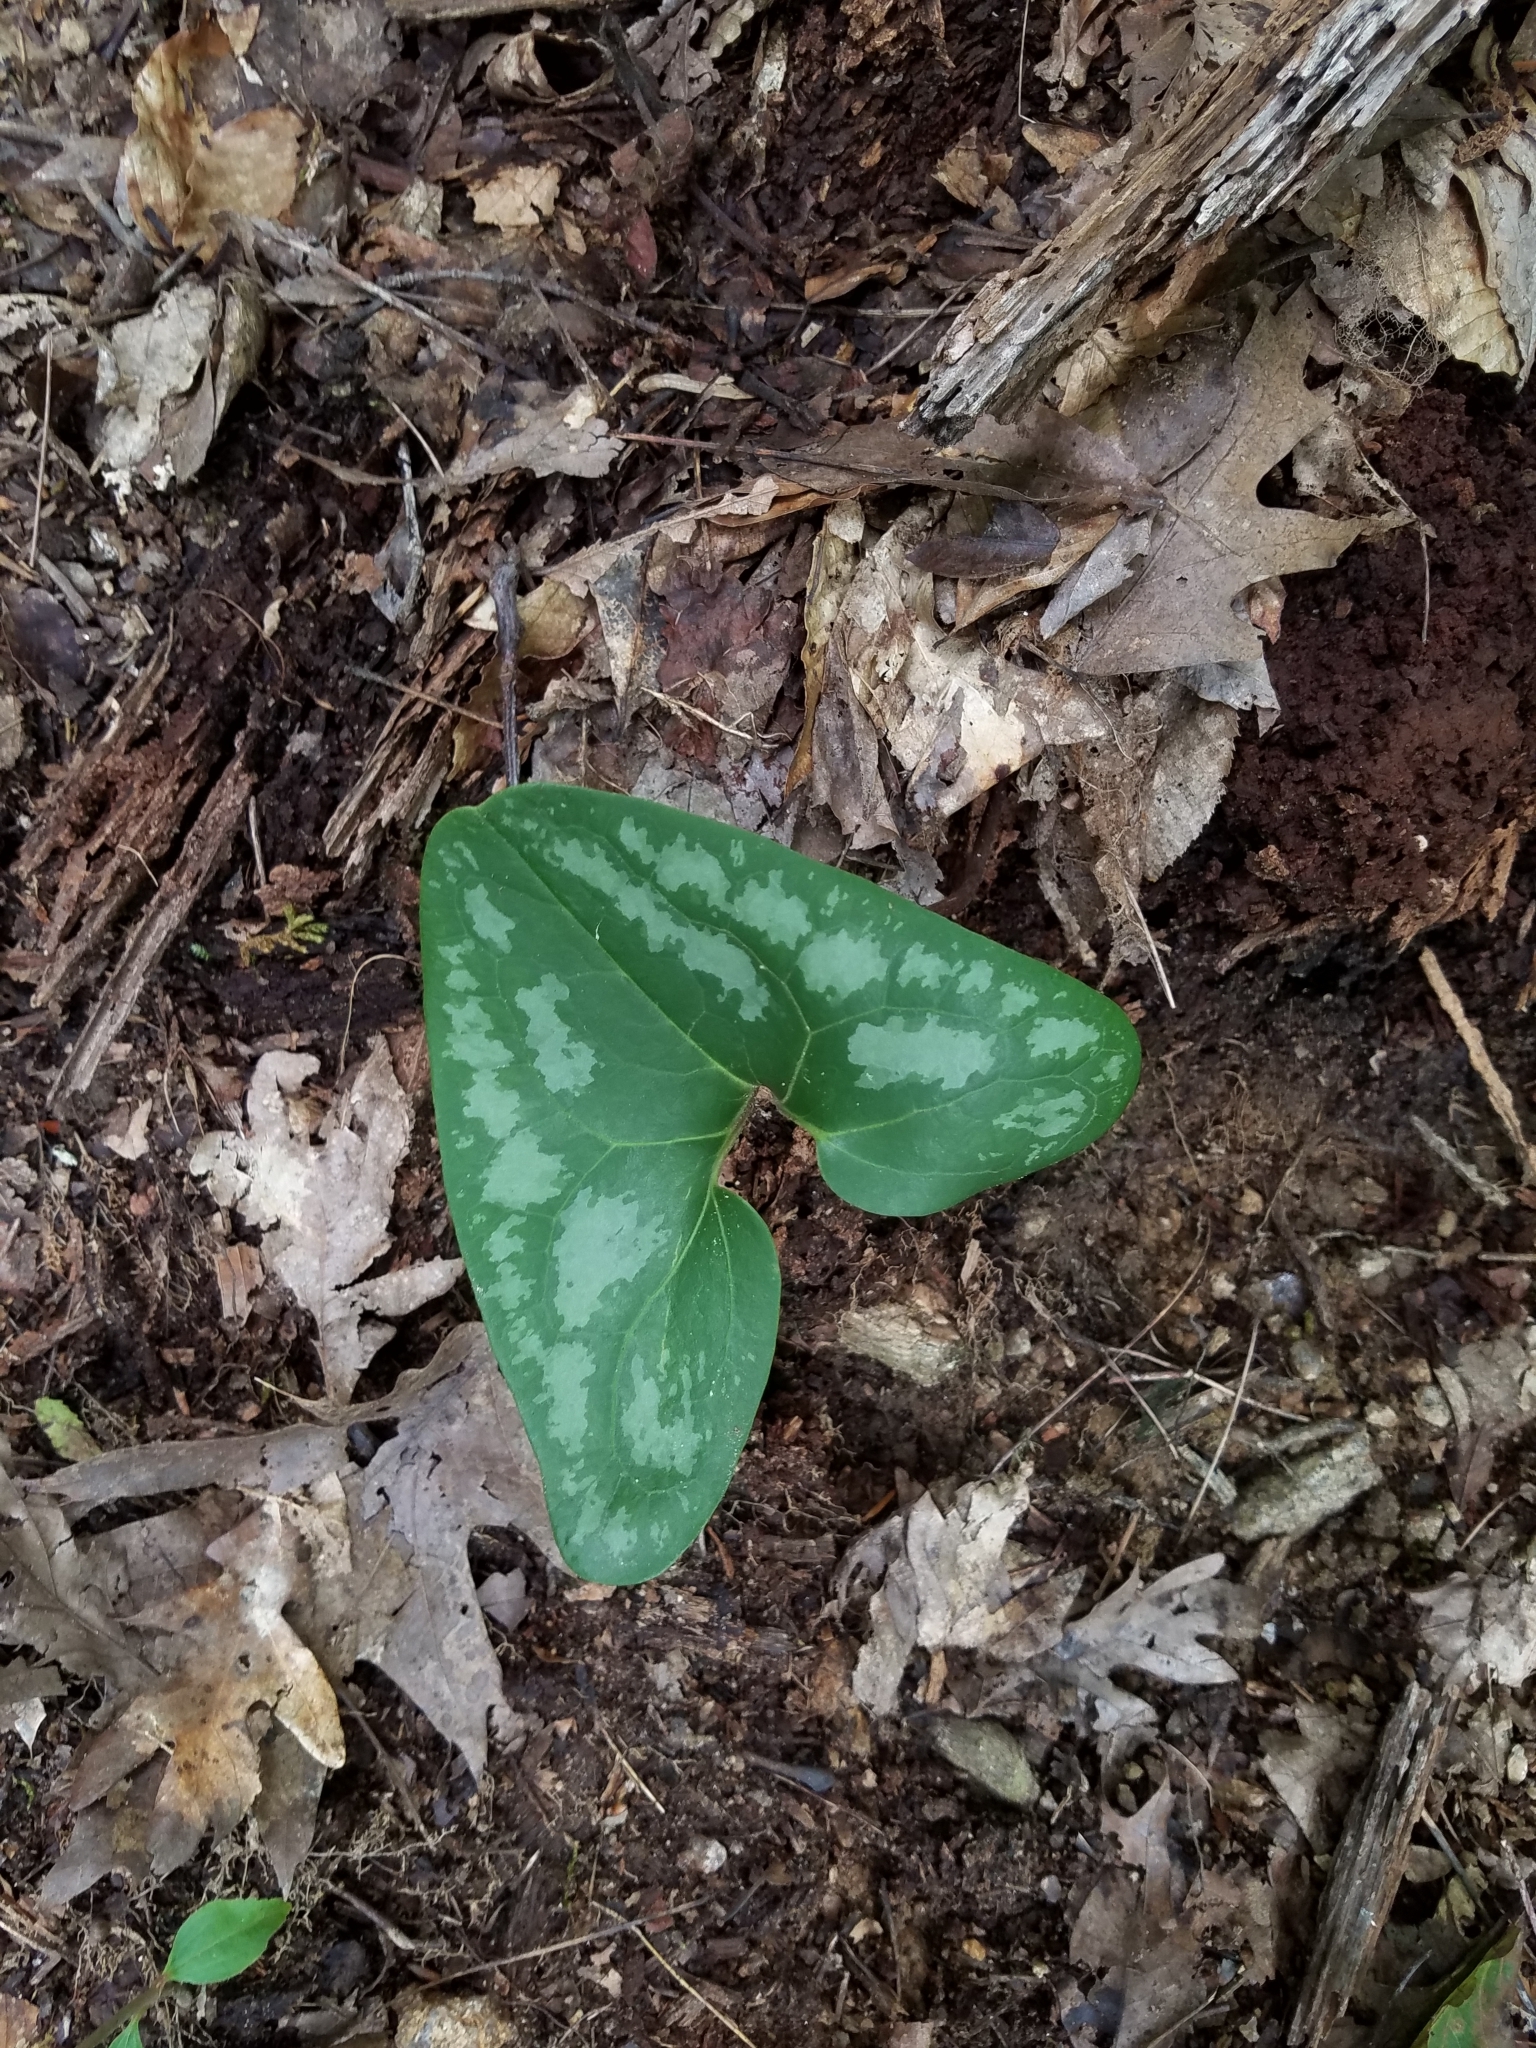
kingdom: Plantae
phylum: Tracheophyta
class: Magnoliopsida
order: Piperales
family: Aristolochiaceae
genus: Hexastylis
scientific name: Hexastylis arifolia
